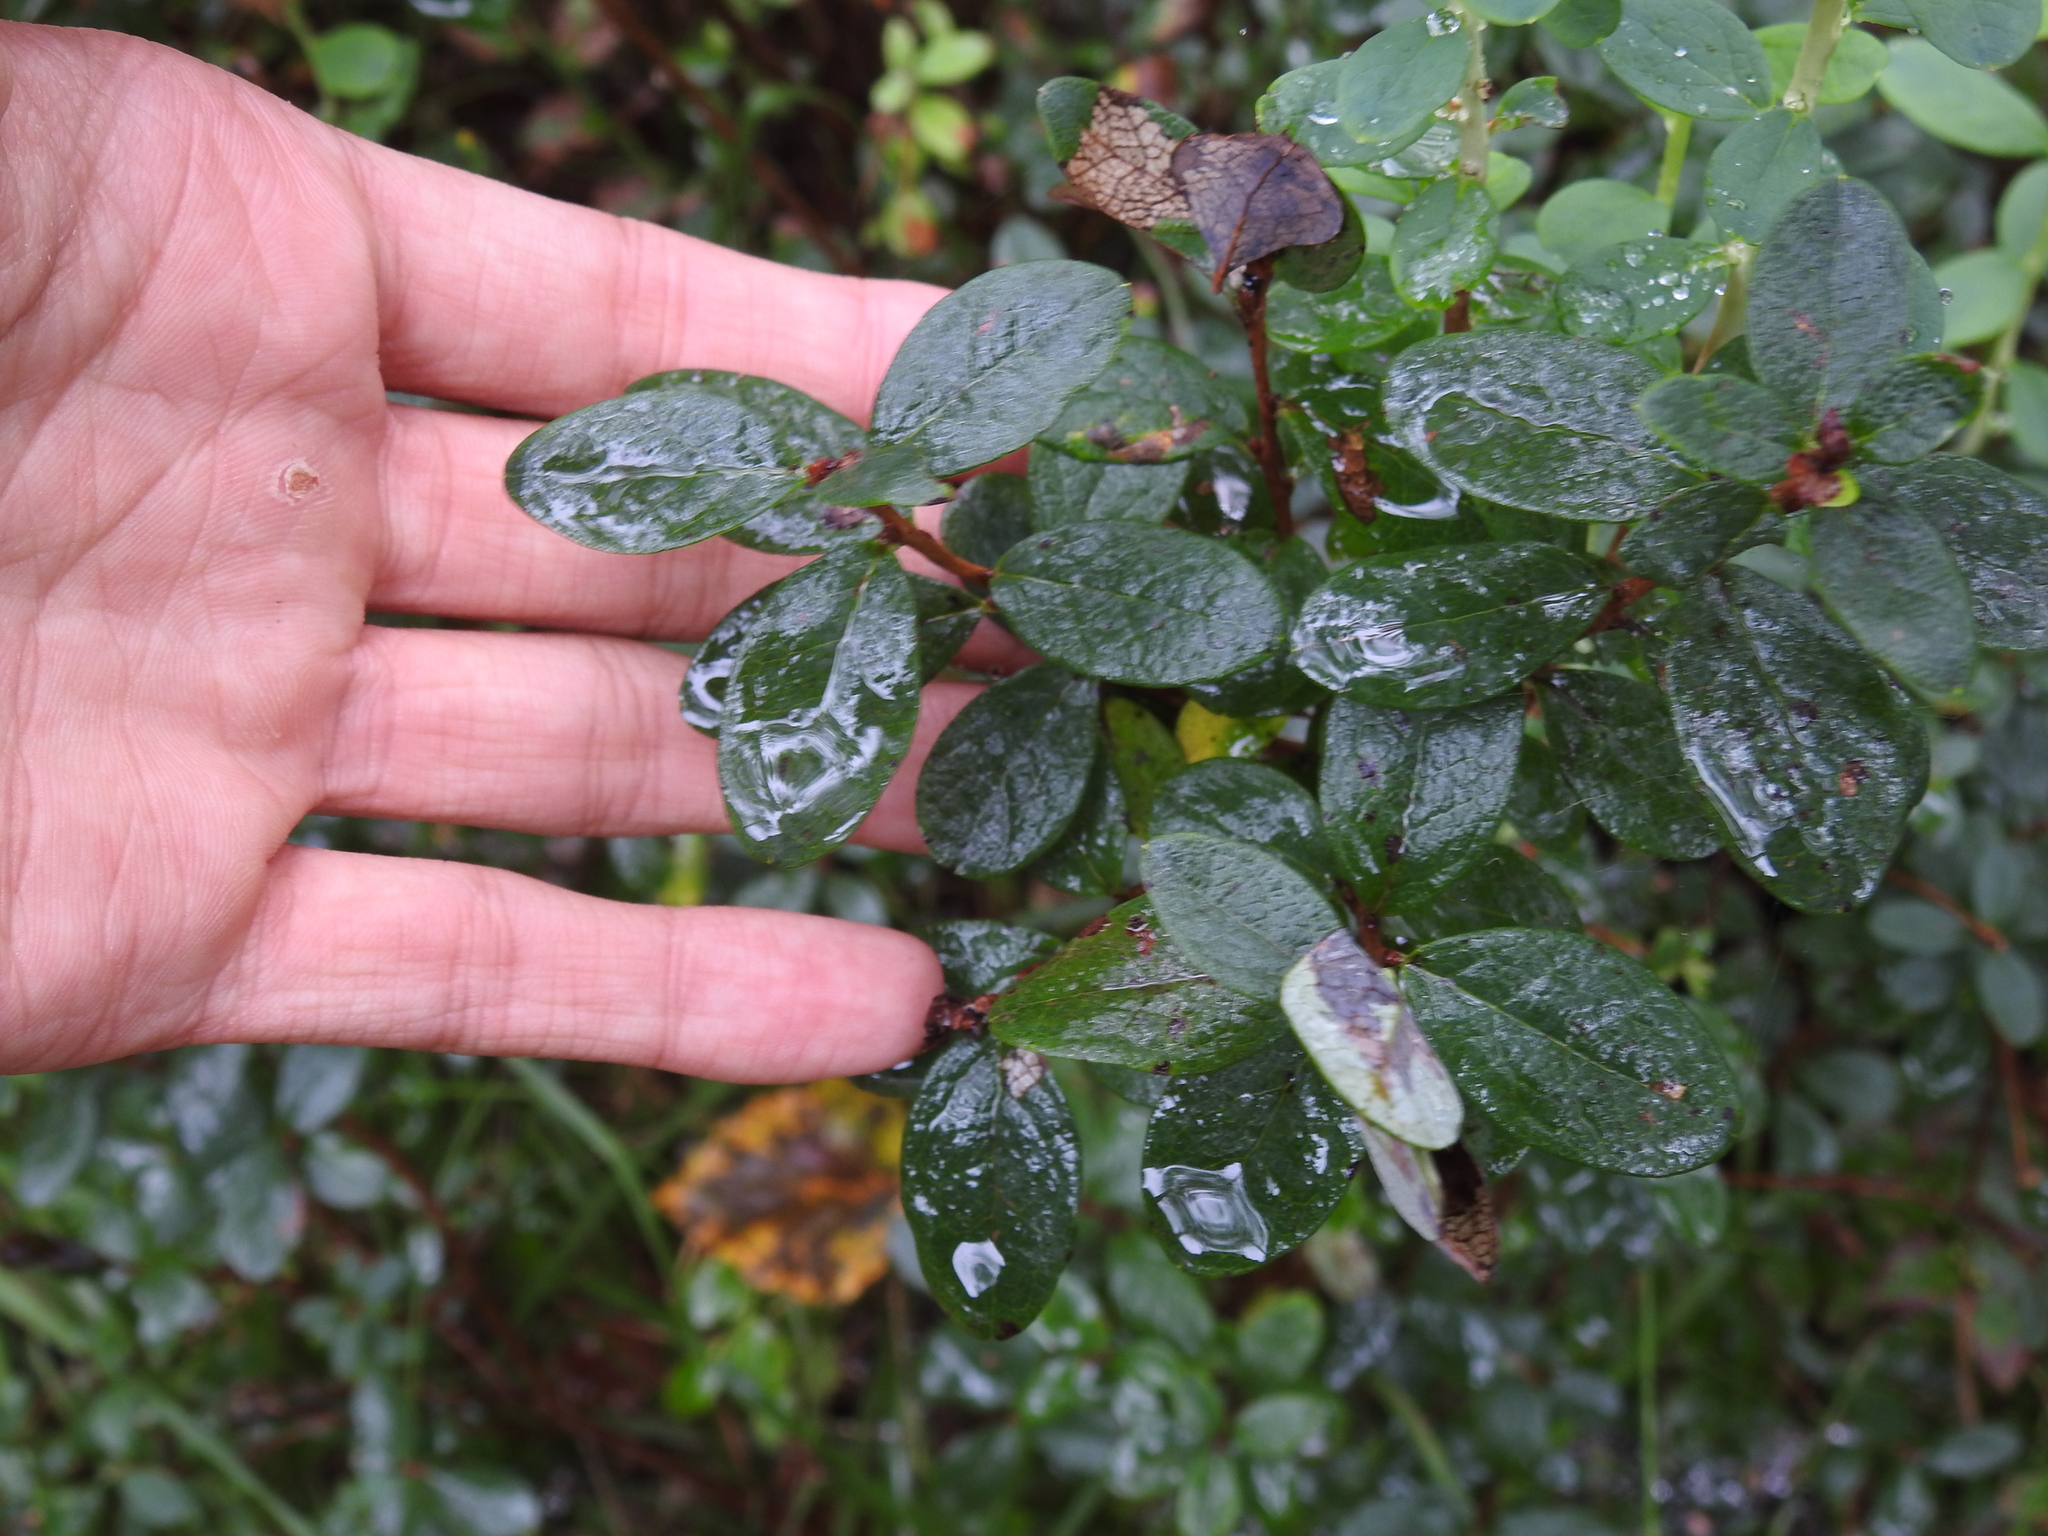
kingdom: Plantae
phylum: Tracheophyta
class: Magnoliopsida
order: Ericales
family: Ericaceae
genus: Vaccinium
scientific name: Vaccinium uliginosum
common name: Bog bilberry
